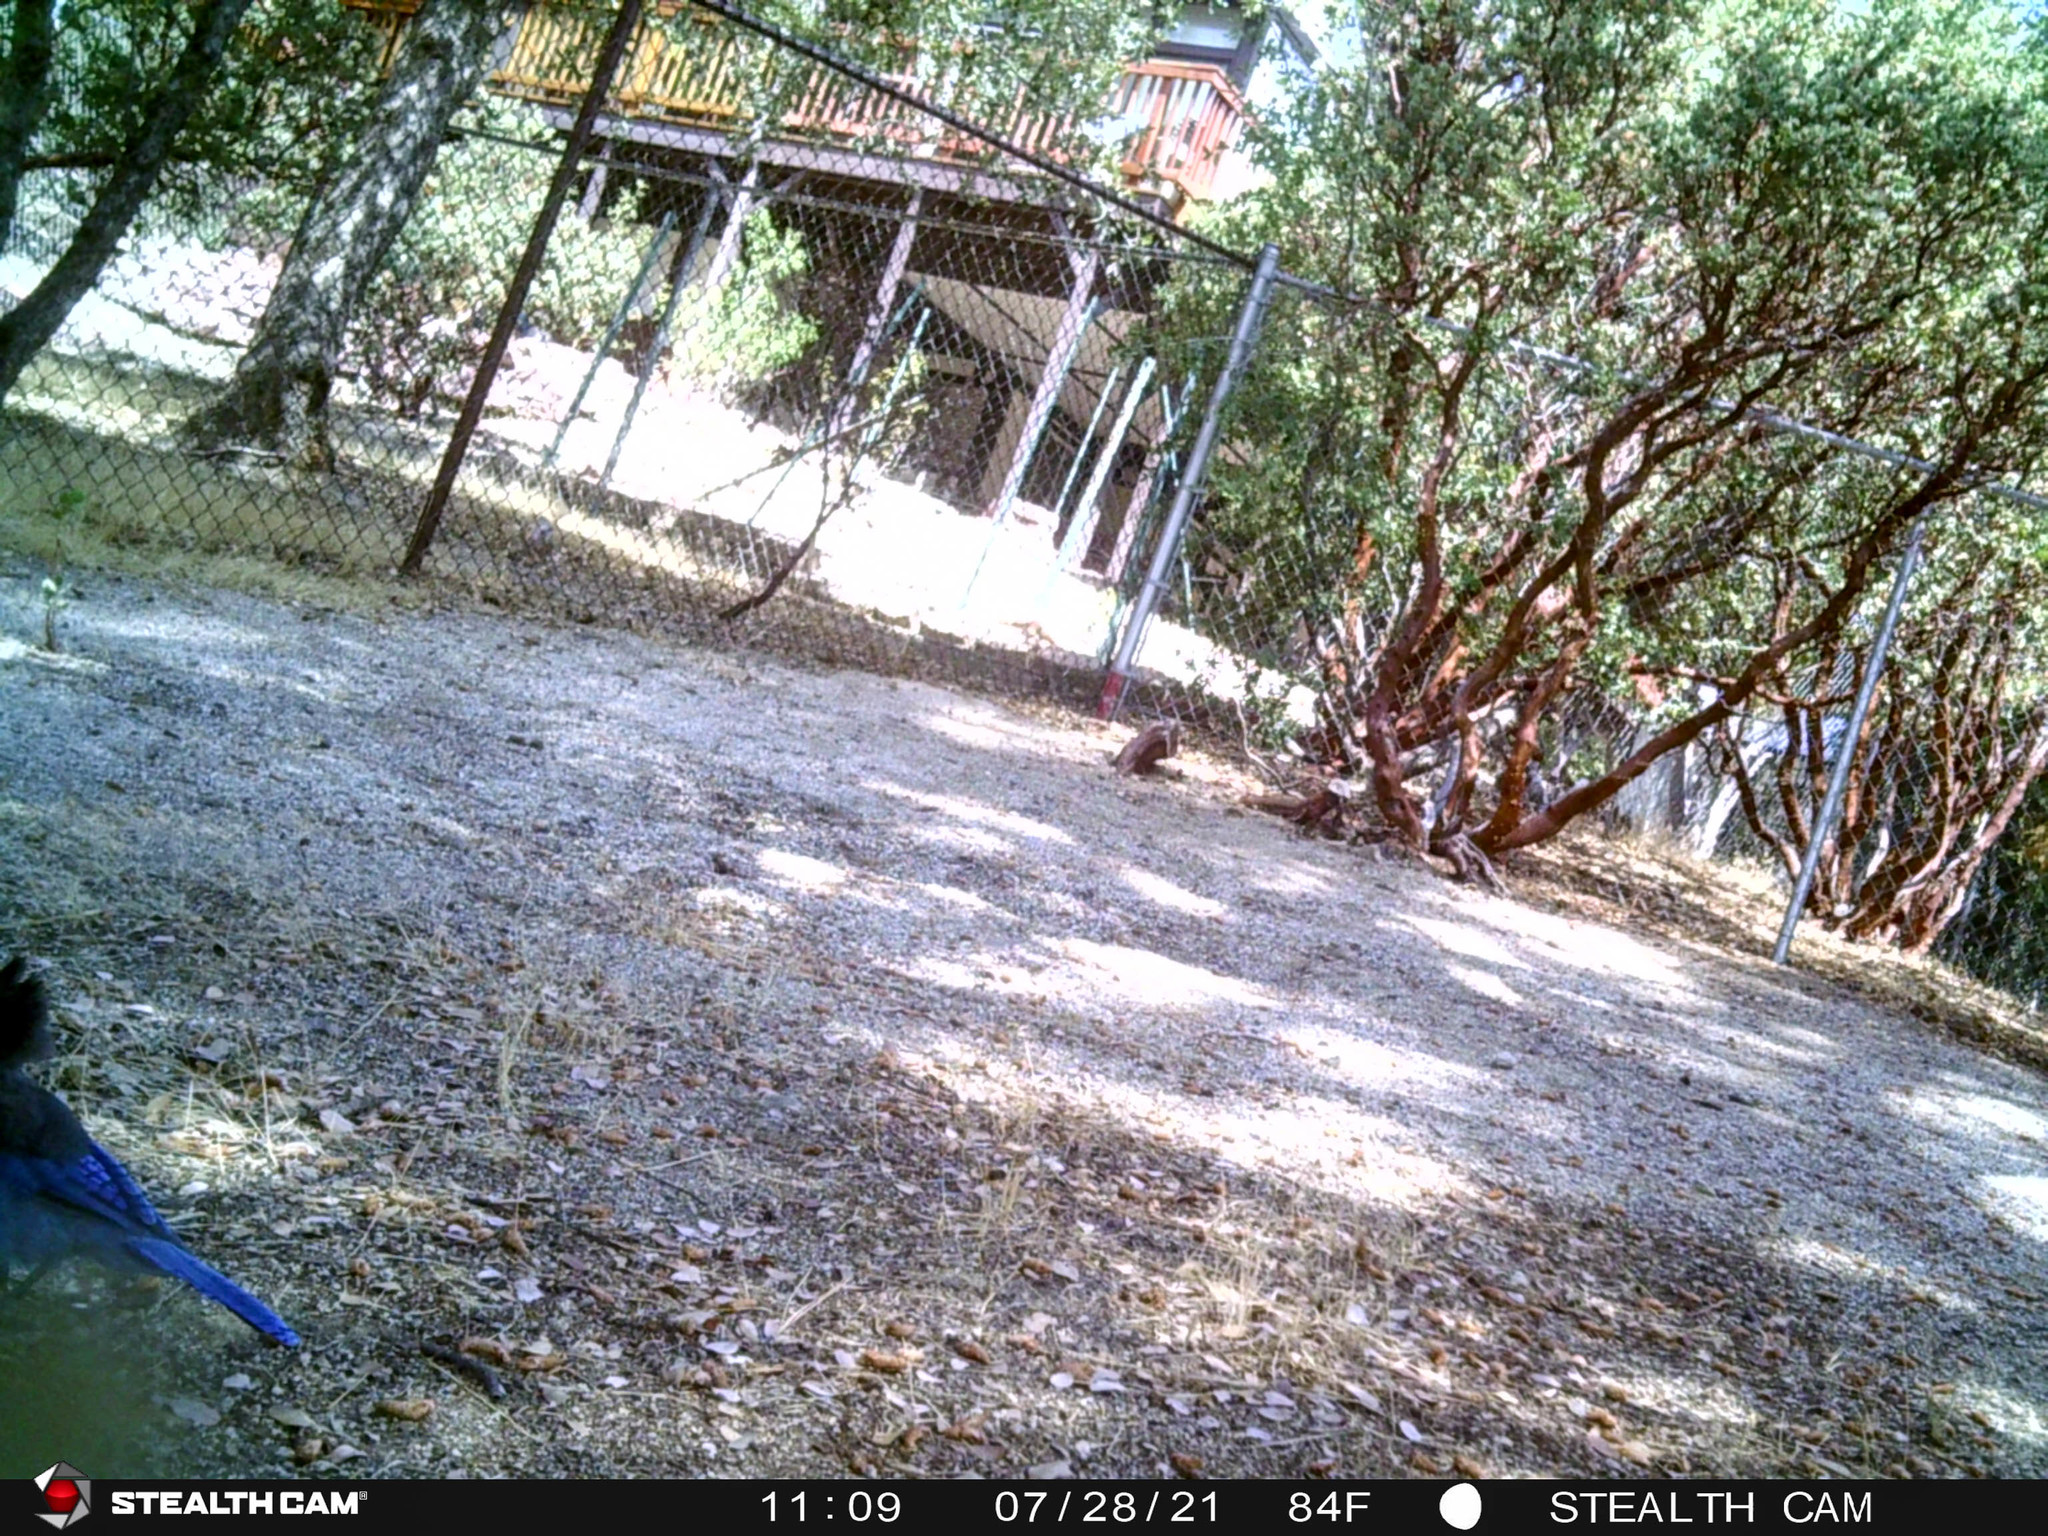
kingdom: Animalia
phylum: Chordata
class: Aves
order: Passeriformes
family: Corvidae
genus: Cyanocitta
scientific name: Cyanocitta stelleri
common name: Steller's jay
